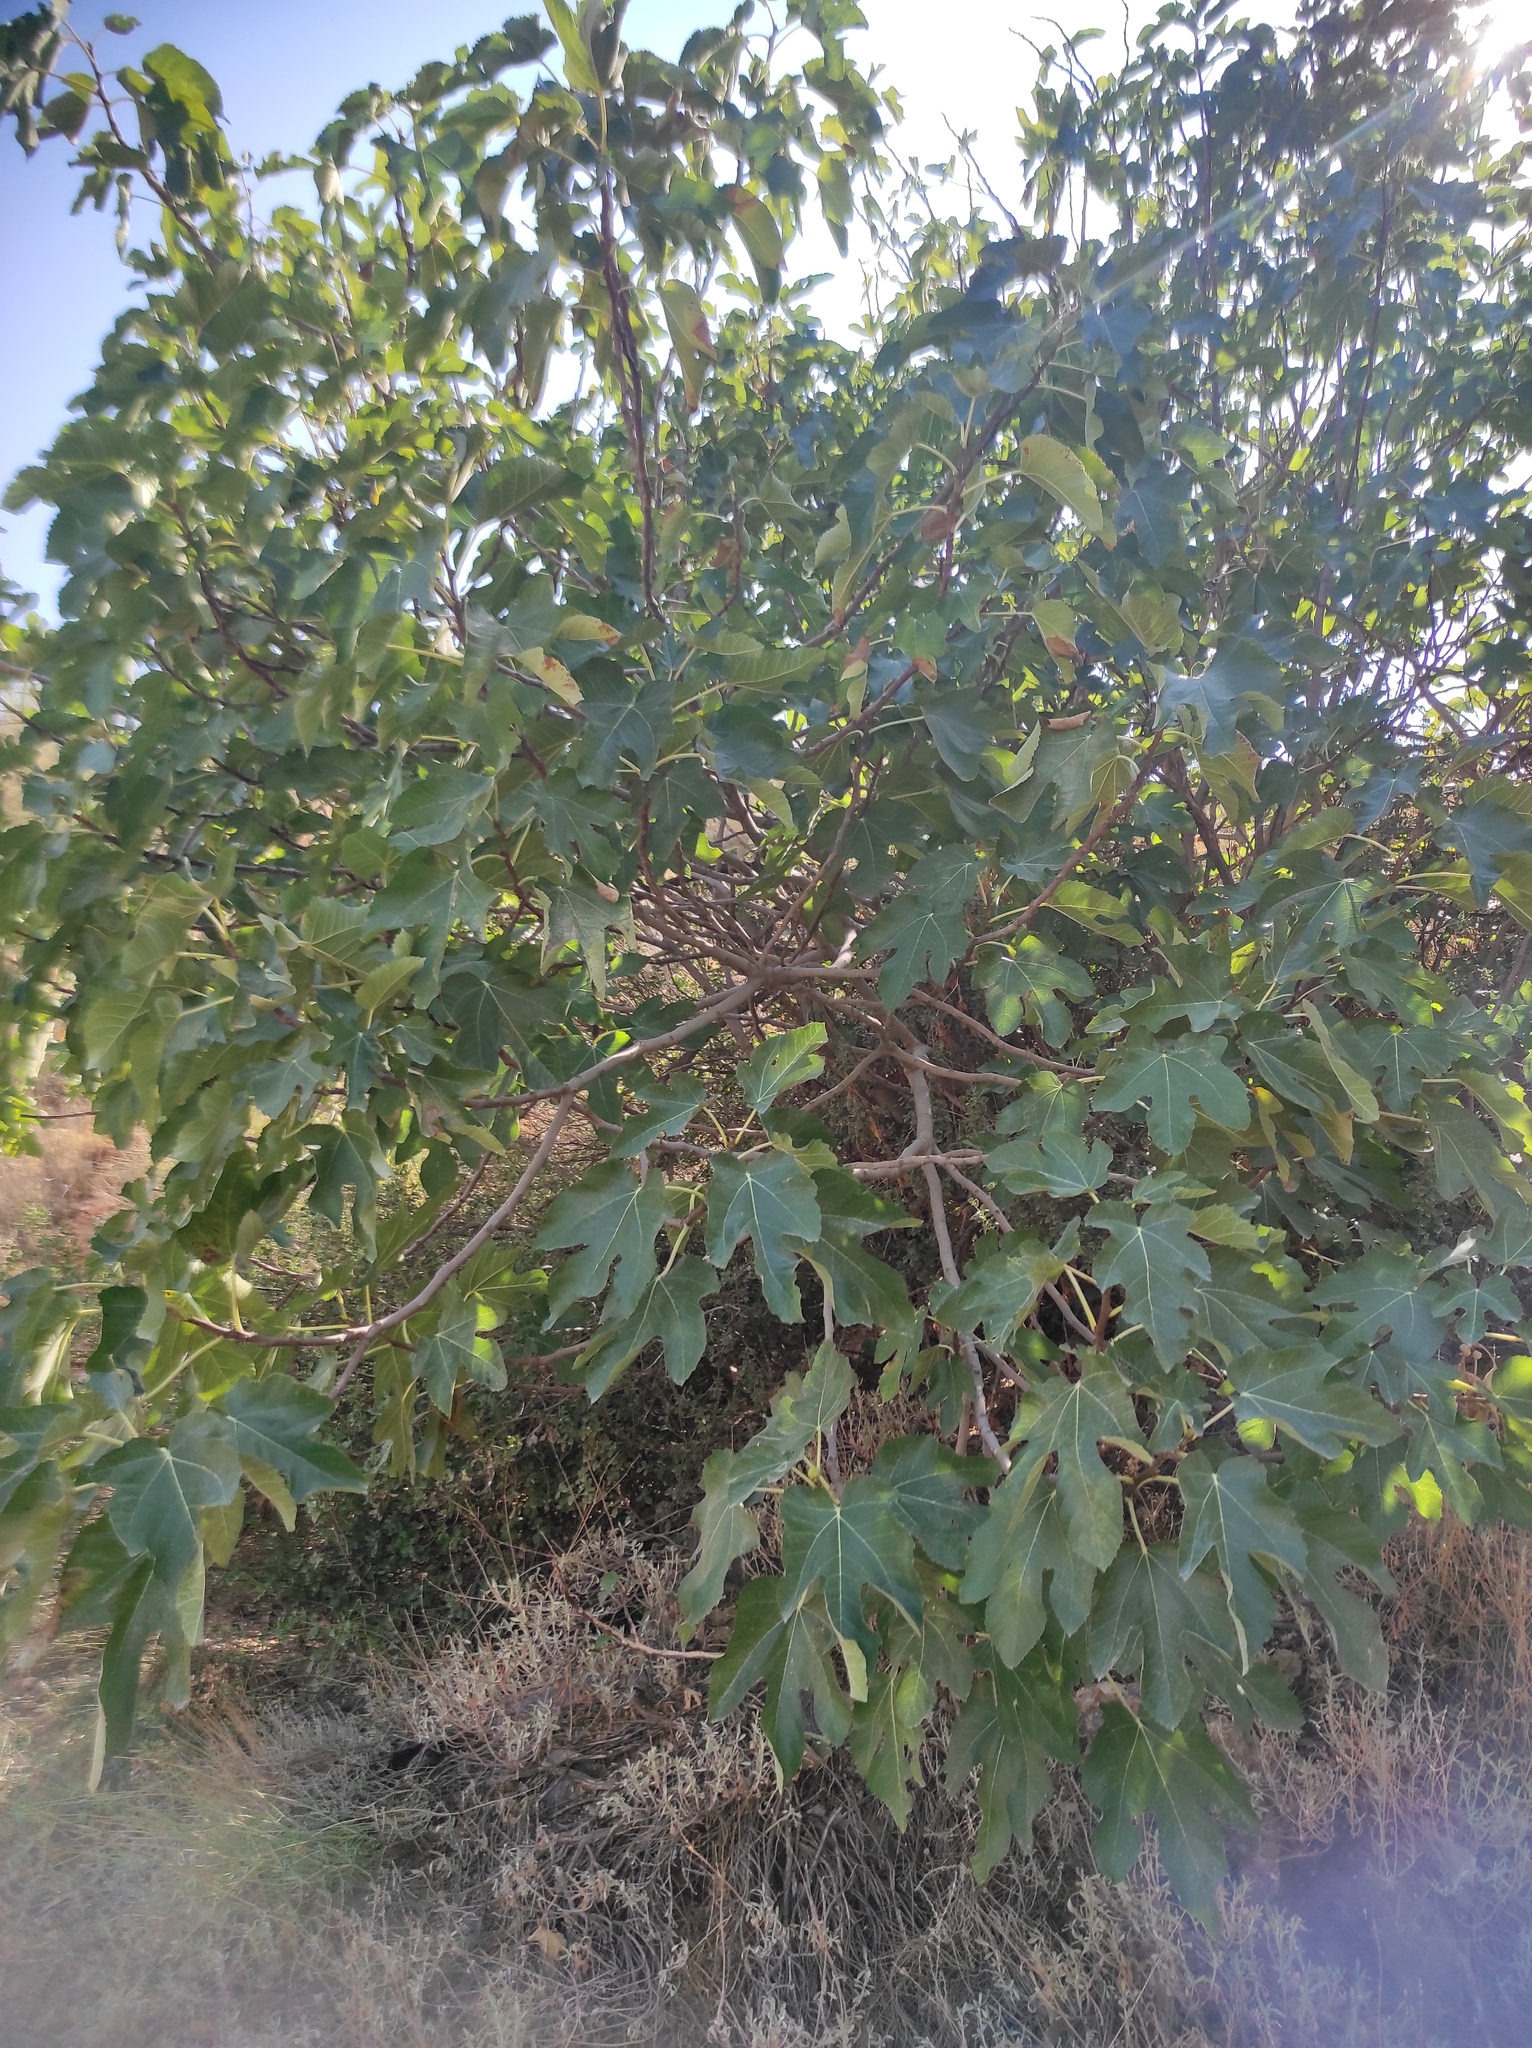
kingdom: Plantae
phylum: Tracheophyta
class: Magnoliopsida
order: Rosales
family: Moraceae
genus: Ficus
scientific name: Ficus carica
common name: Fig
